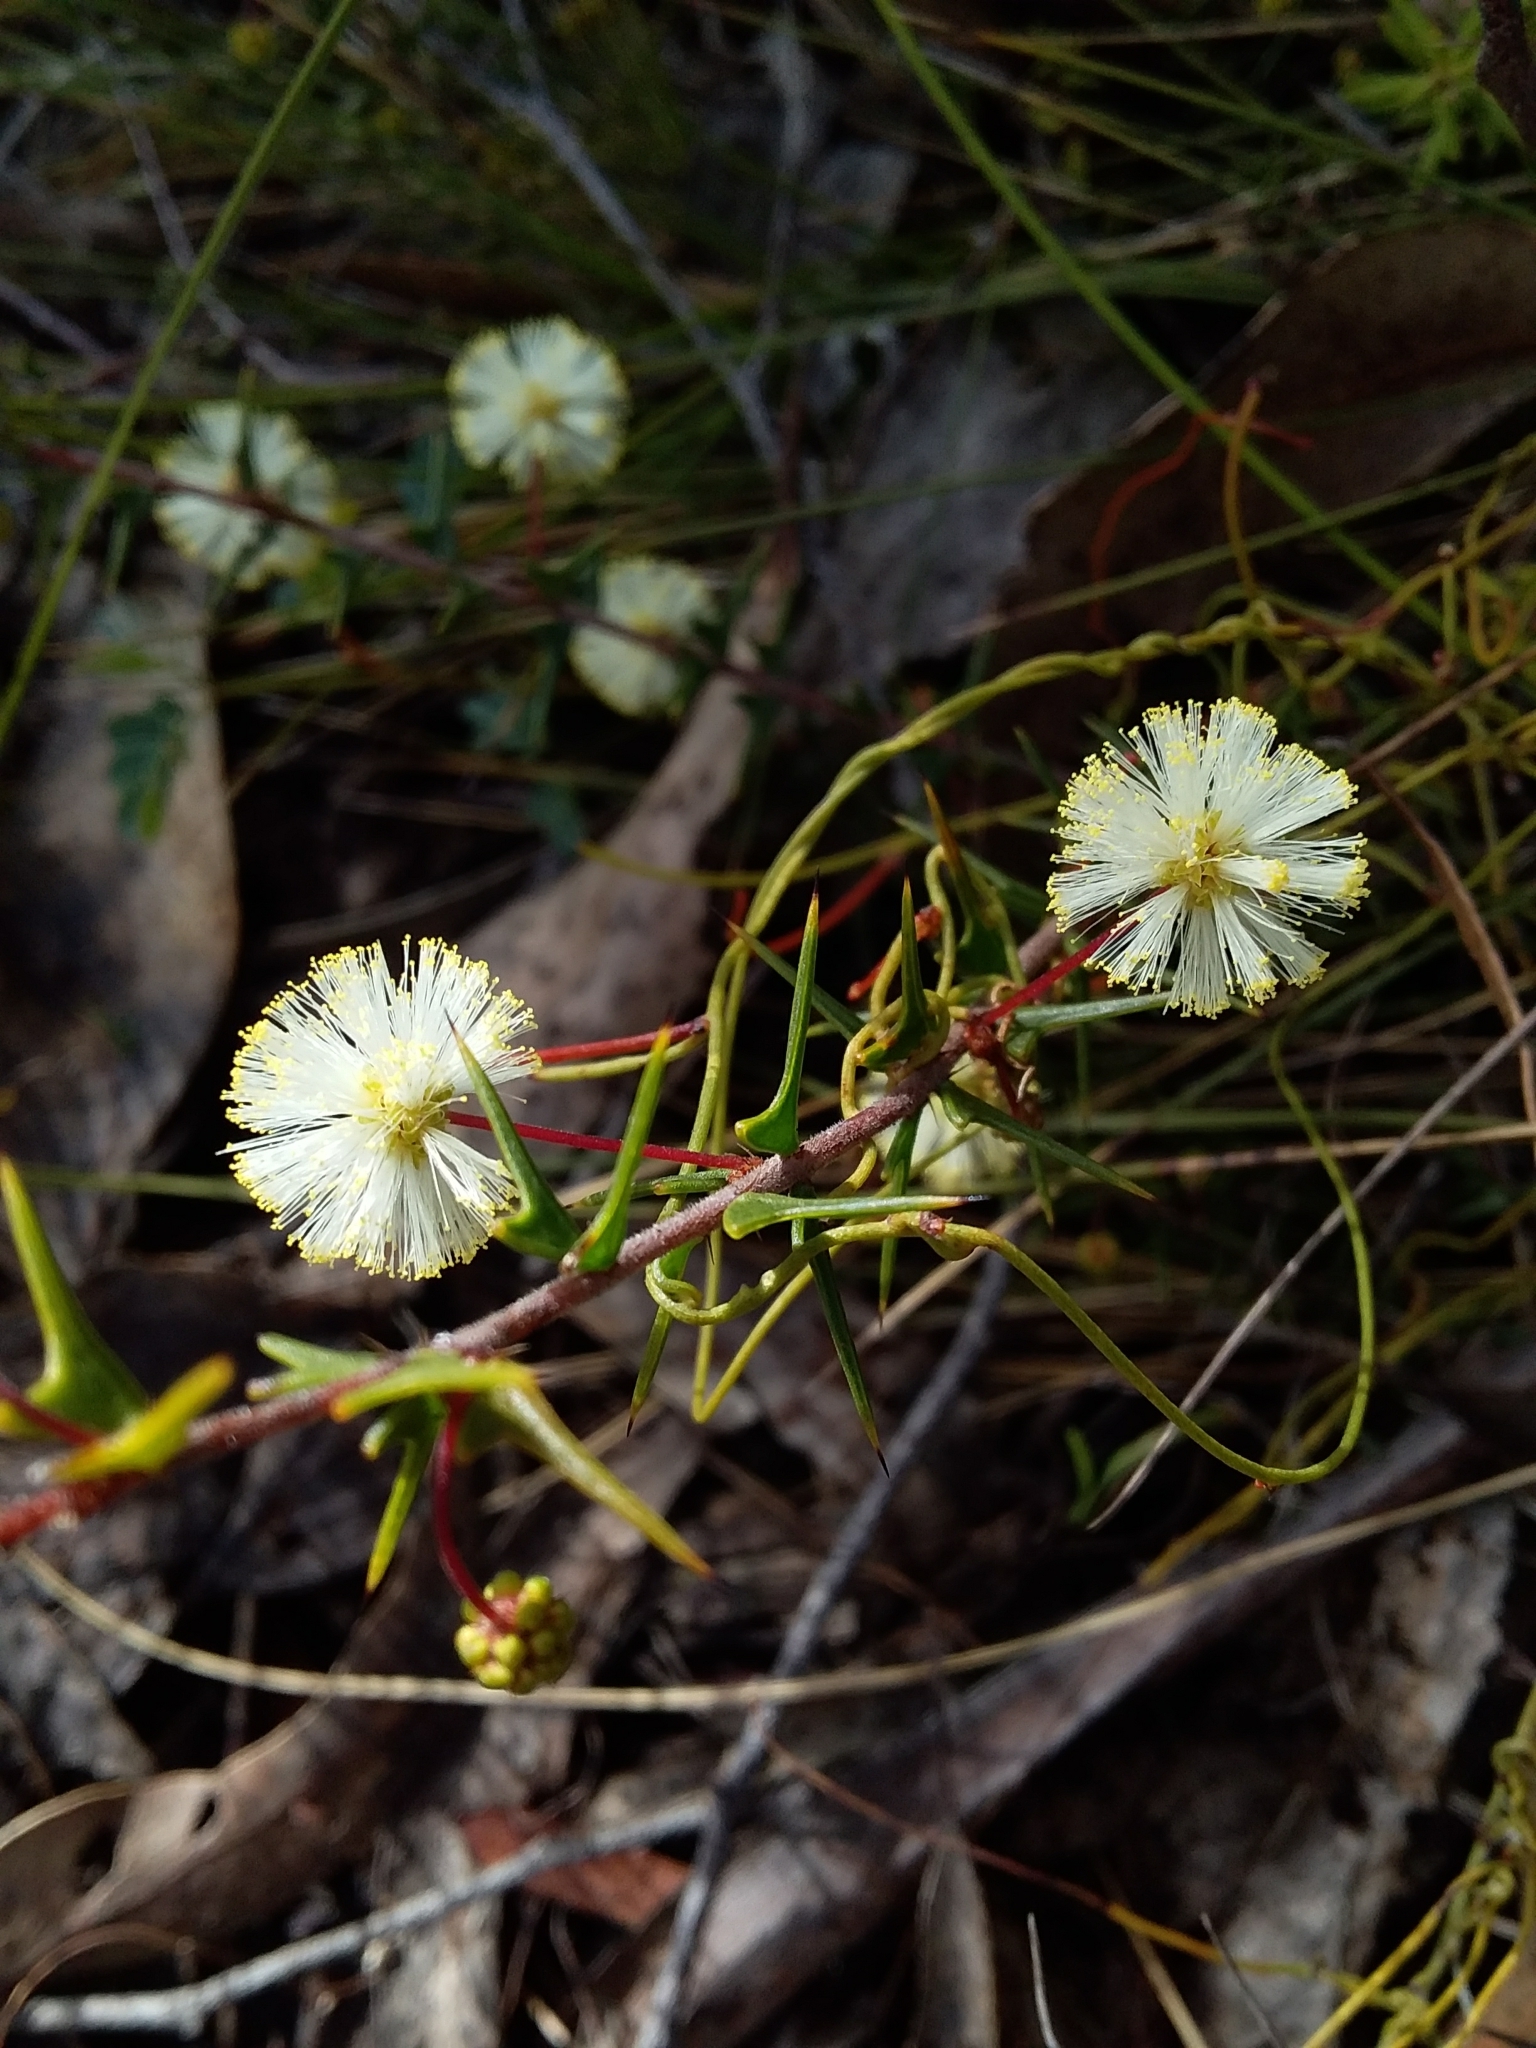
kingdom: Plantae
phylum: Tracheophyta
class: Magnoliopsida
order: Fabales
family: Fabaceae
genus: Acacia
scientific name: Acacia gunnii
